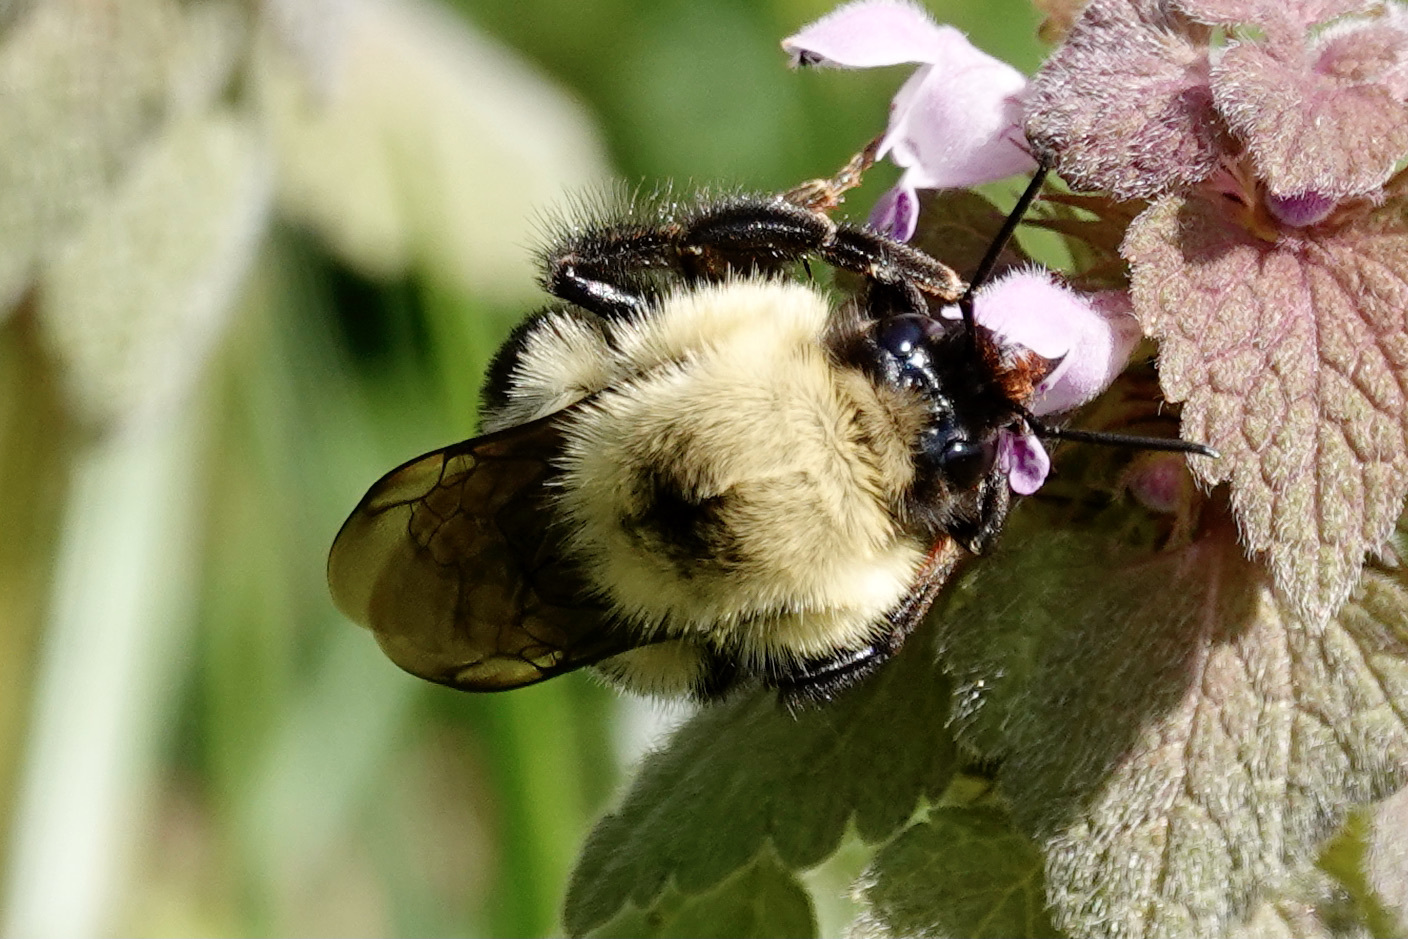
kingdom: Animalia
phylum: Arthropoda
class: Insecta
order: Hymenoptera
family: Apidae
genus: Bombus
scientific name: Bombus bimaculatus
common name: Two-spotted bumble bee
